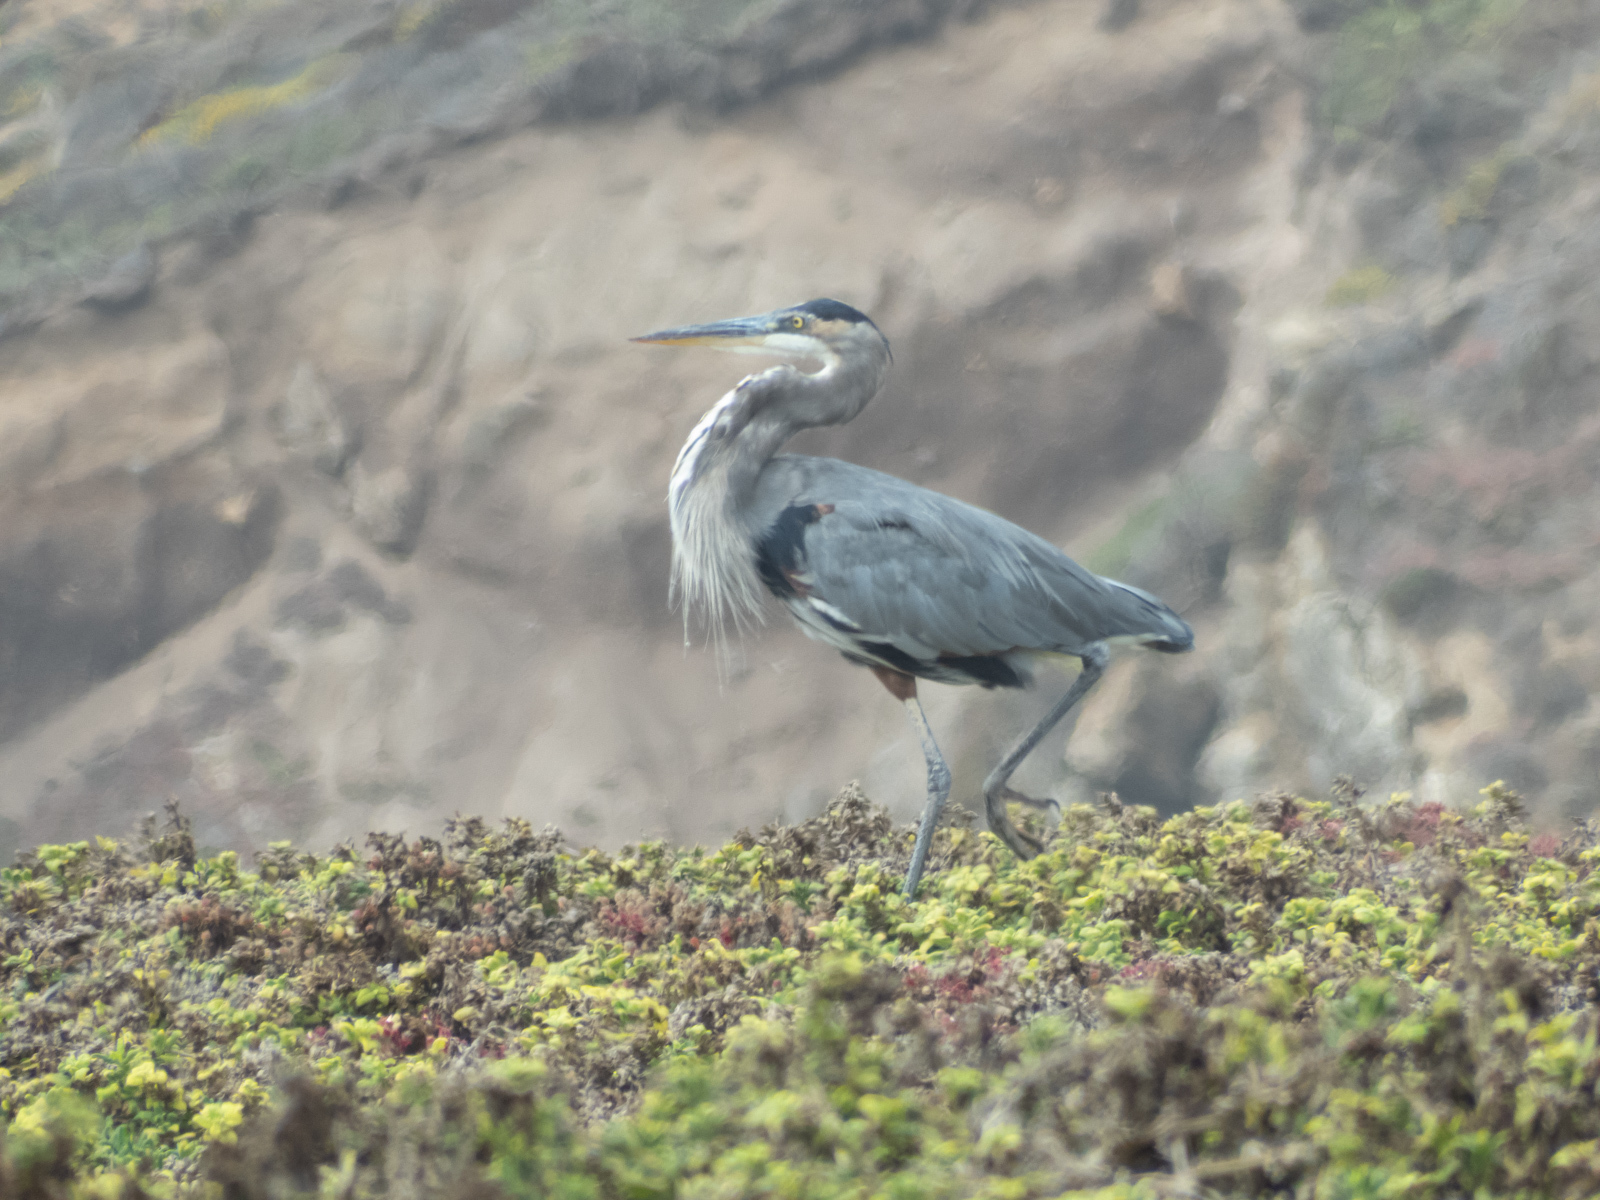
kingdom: Animalia
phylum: Chordata
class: Aves
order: Pelecaniformes
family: Ardeidae
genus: Ardea
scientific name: Ardea herodias
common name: Great blue heron
